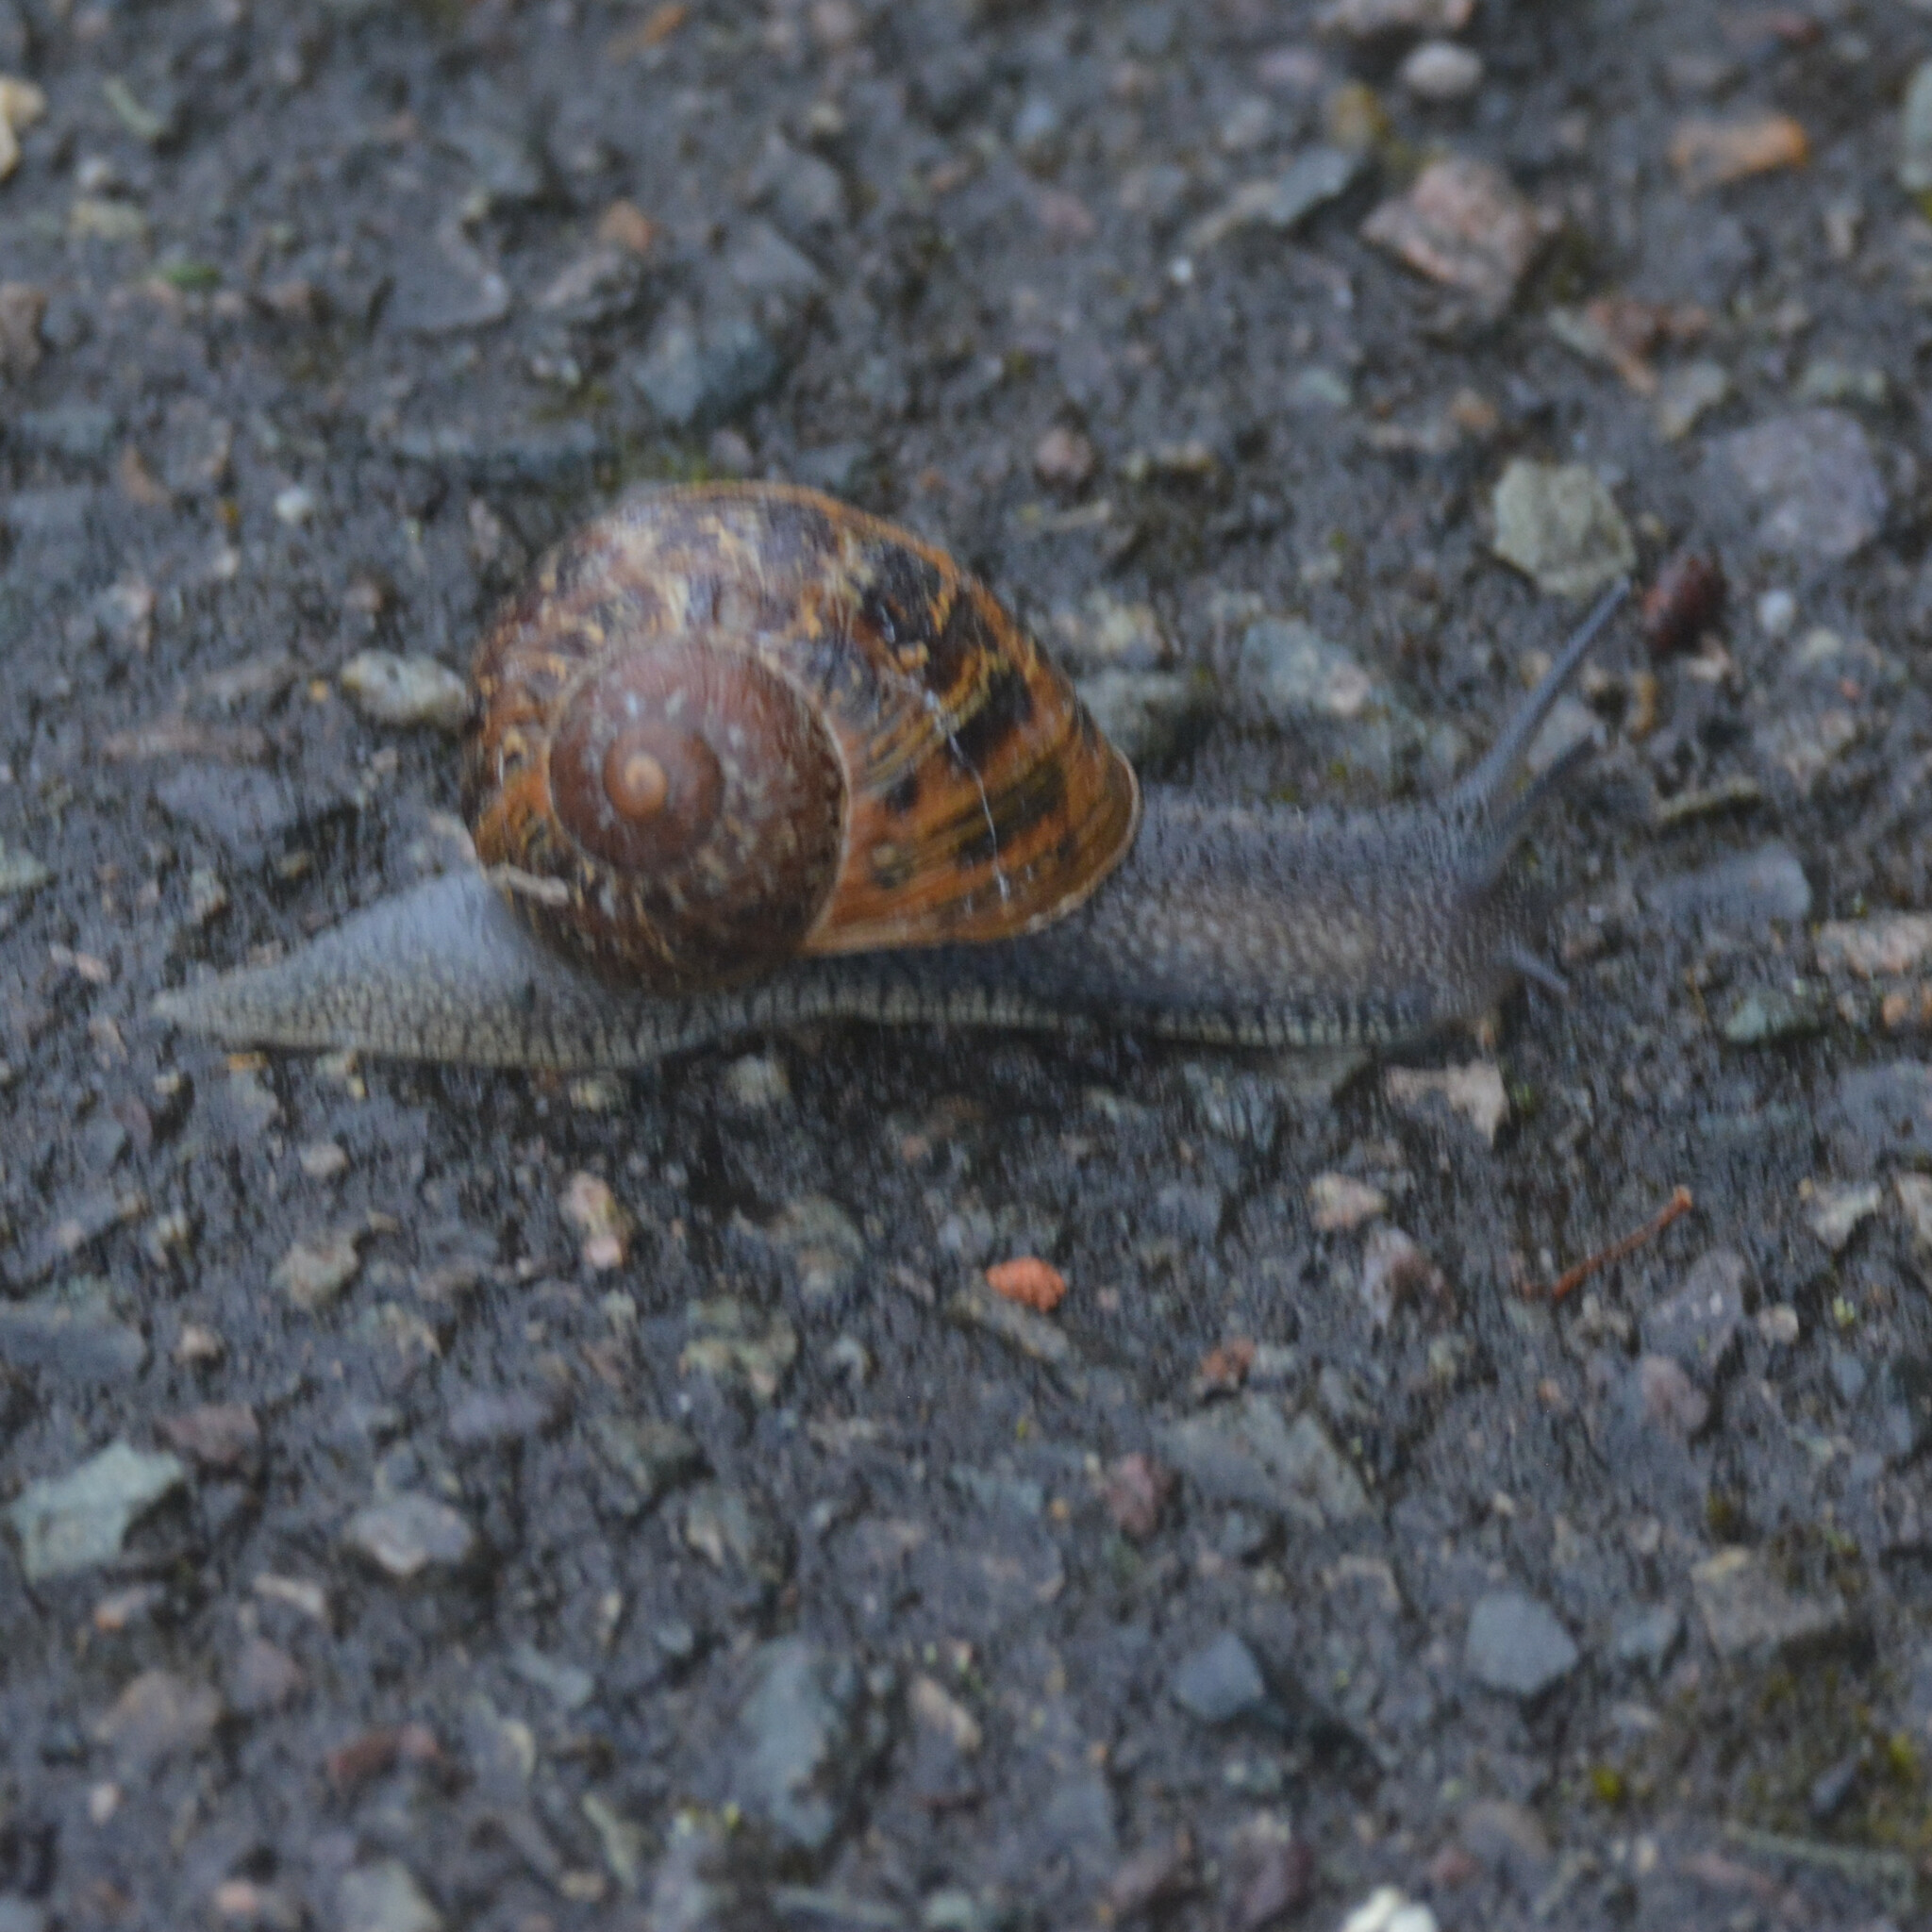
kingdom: Animalia
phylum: Mollusca
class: Gastropoda
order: Stylommatophora
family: Helicidae
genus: Cornu
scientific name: Cornu aspersum
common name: Brown garden snail
